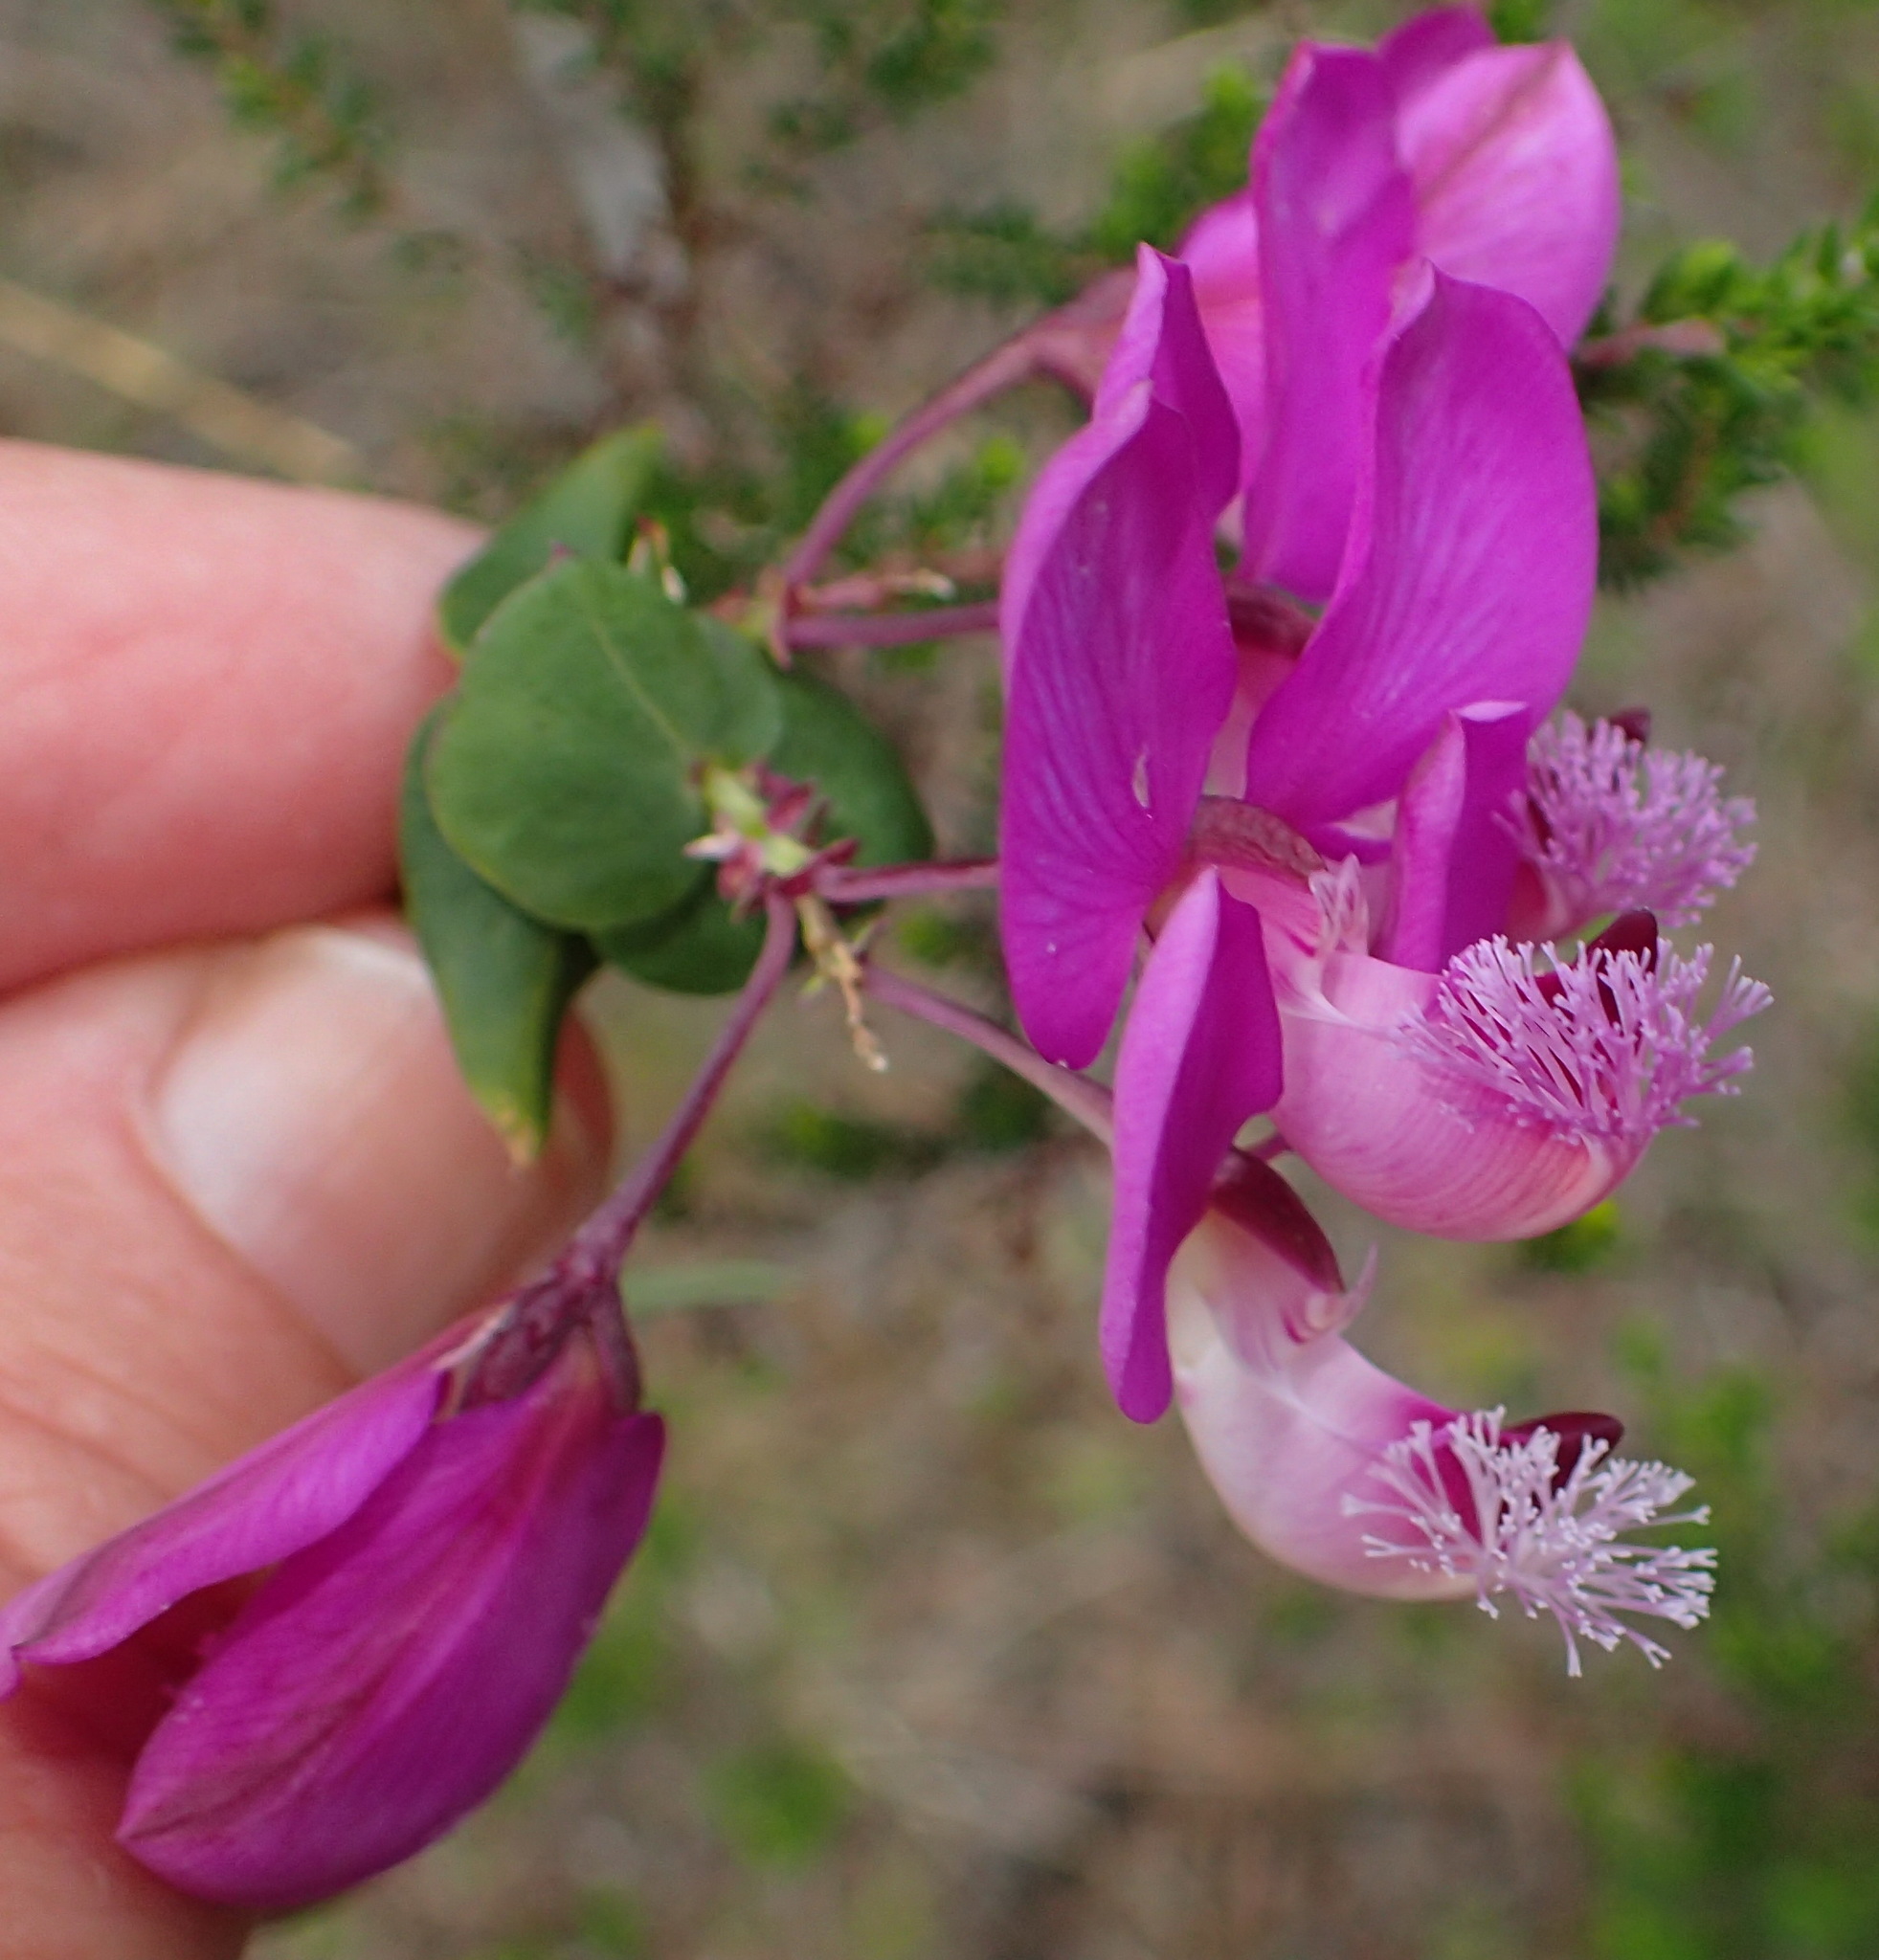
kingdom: Plantae
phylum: Tracheophyta
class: Magnoliopsida
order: Fabales
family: Polygalaceae
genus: Polygala
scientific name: Polygala fruticosa
